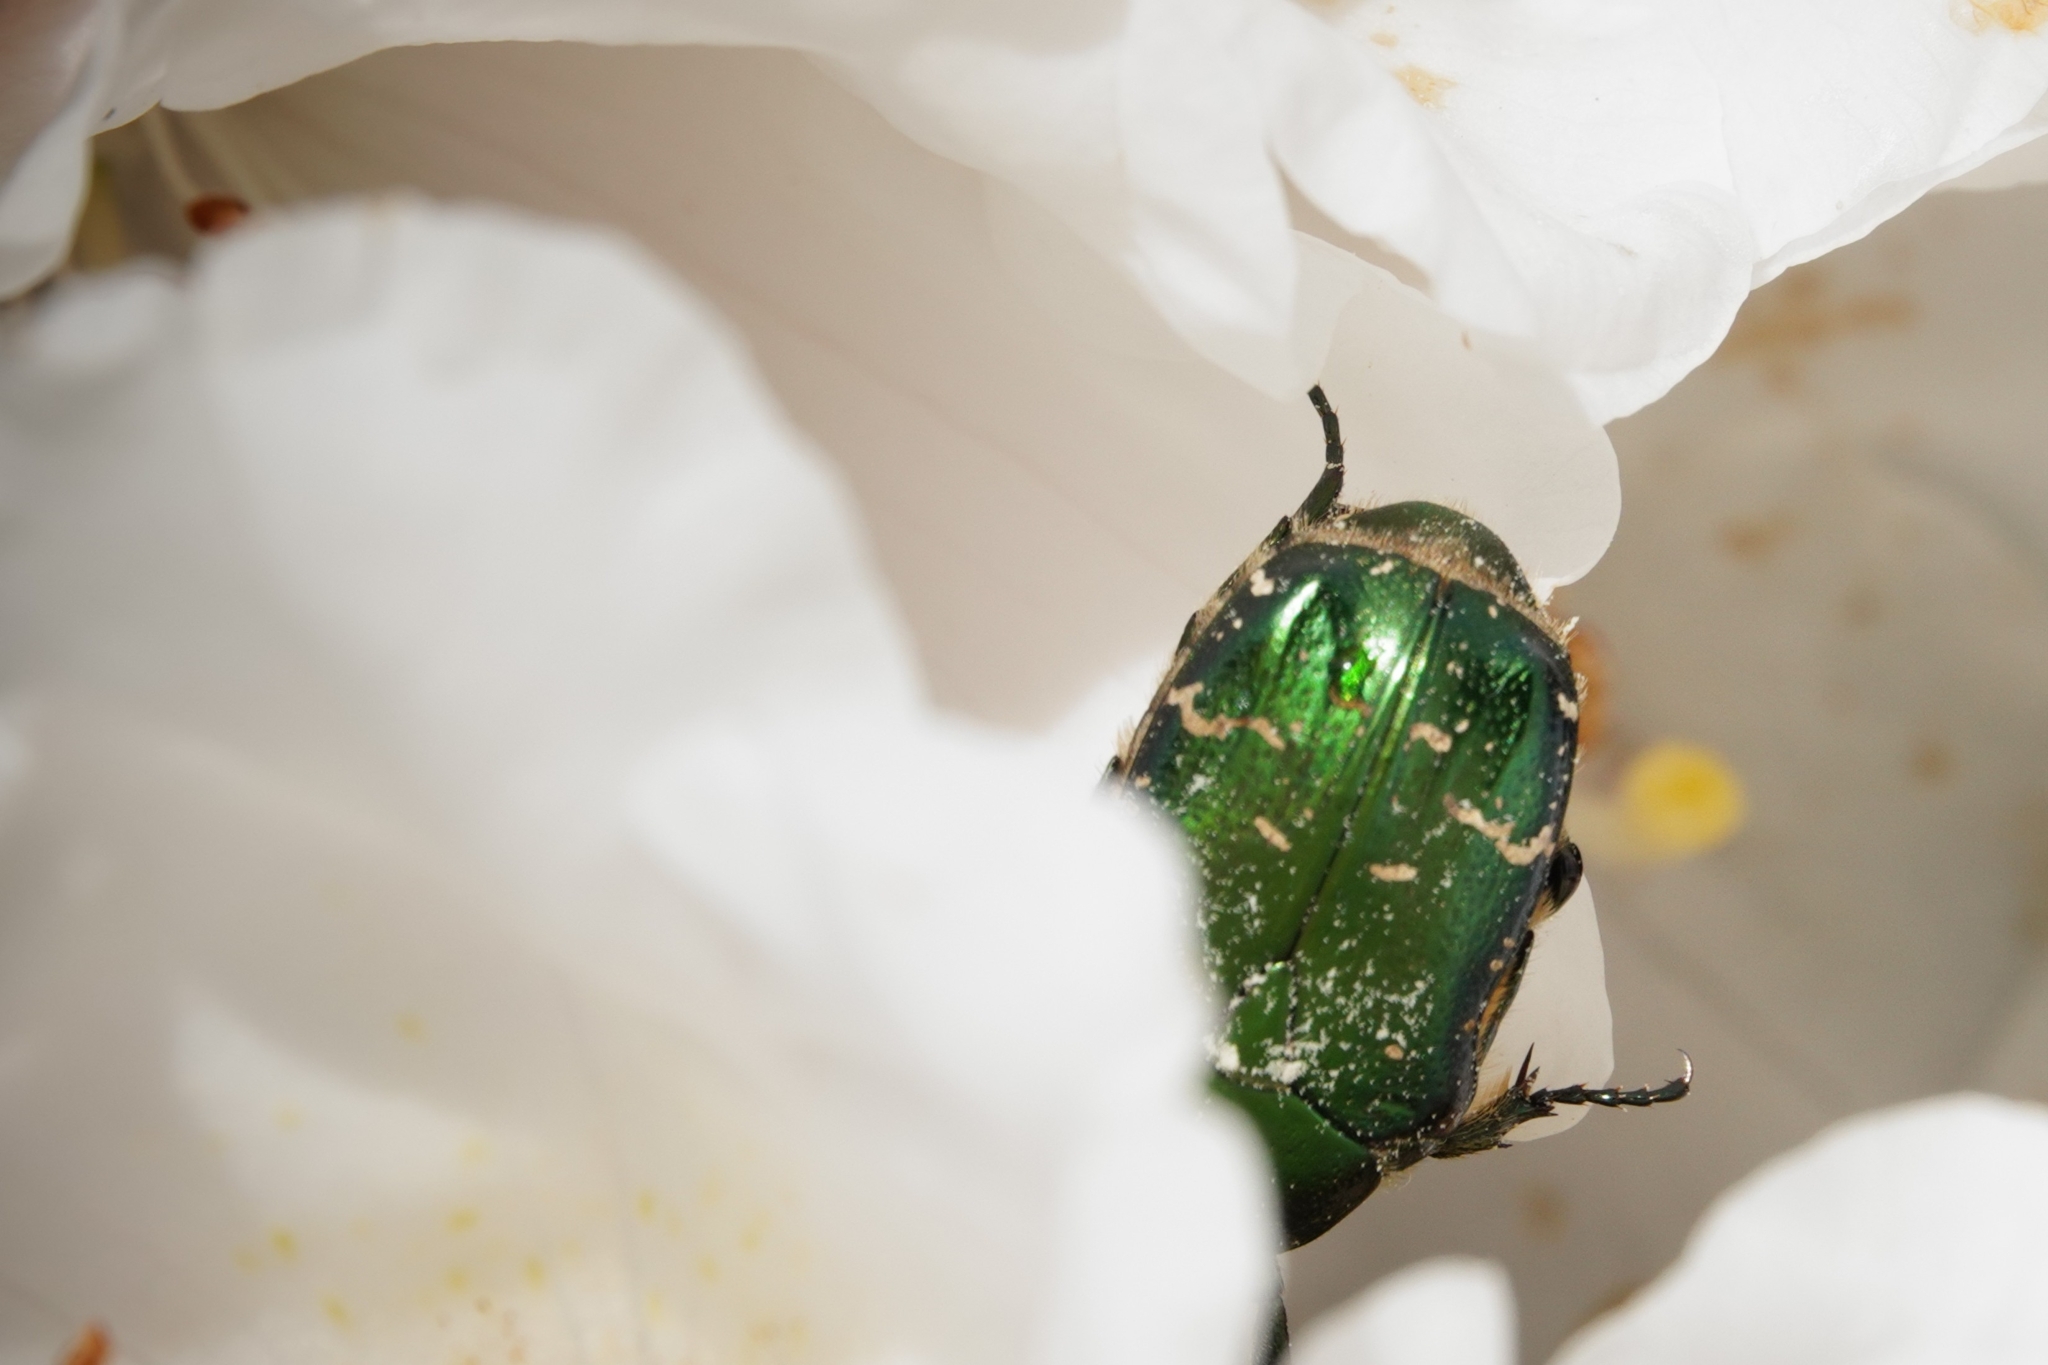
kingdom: Animalia
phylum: Arthropoda
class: Insecta
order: Coleoptera
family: Scarabaeidae
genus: Cetonia
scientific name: Cetonia aurata
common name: Rose chafer
